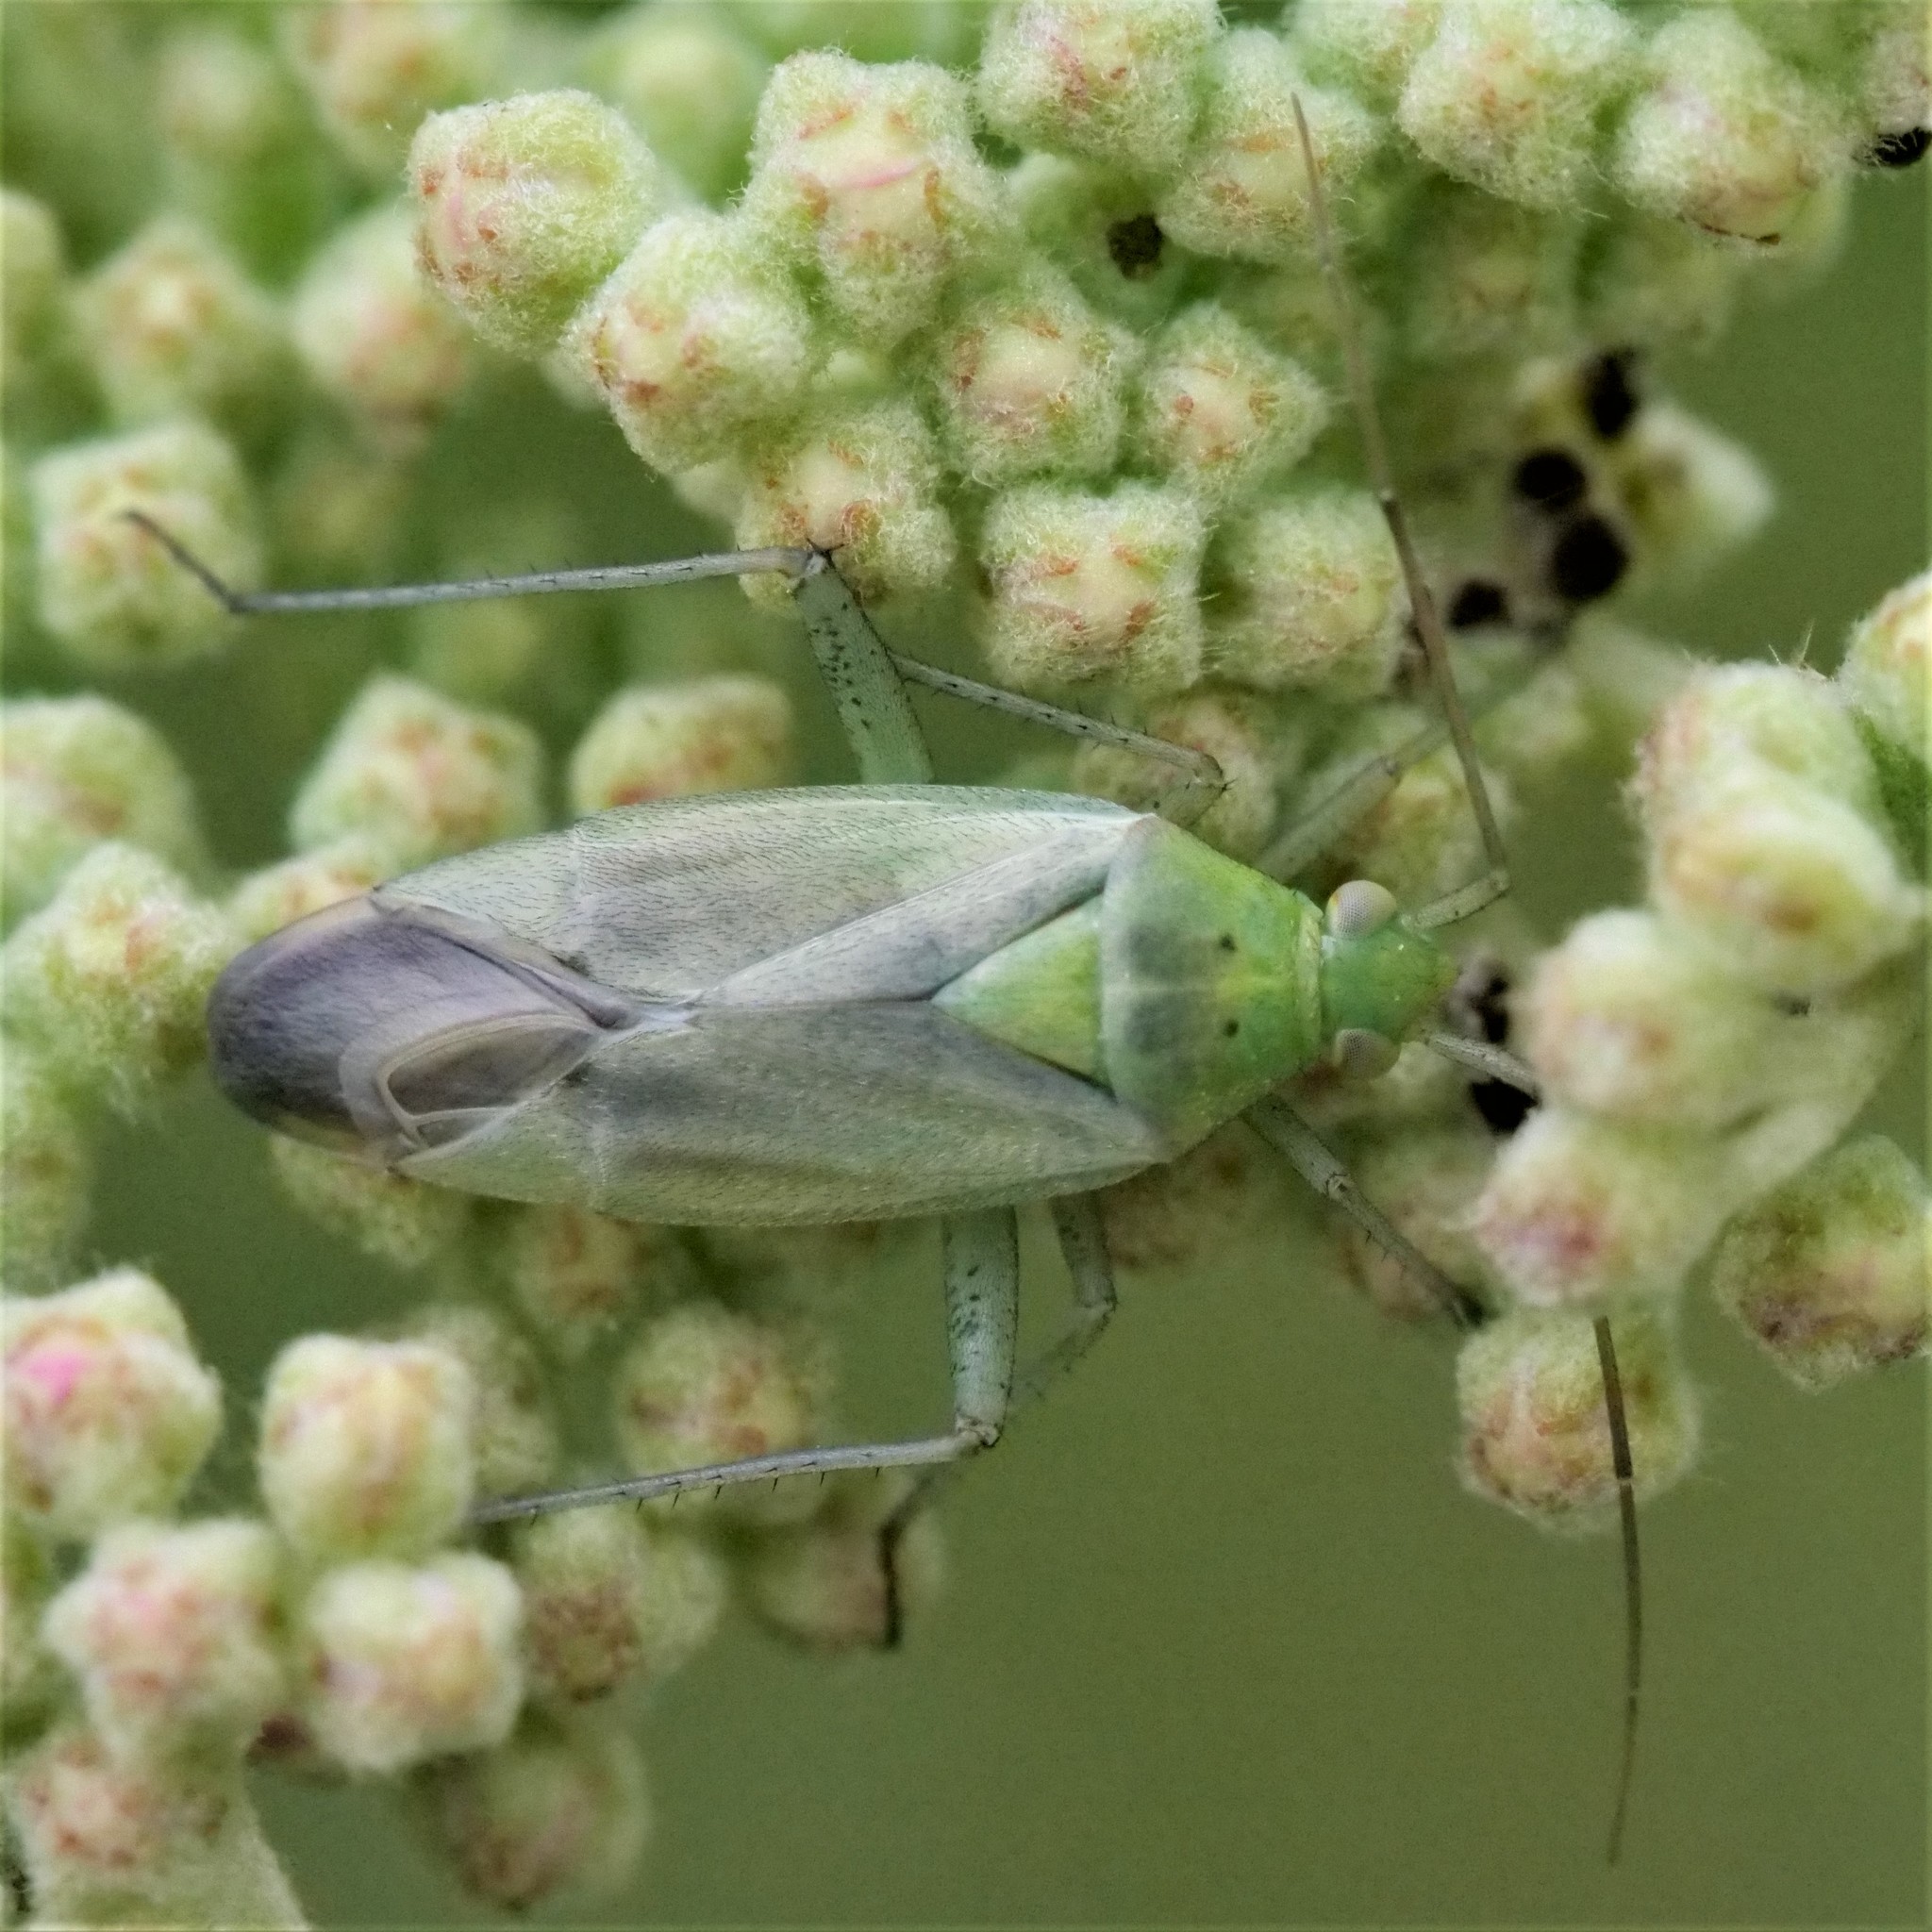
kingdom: Animalia
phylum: Arthropoda
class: Insecta
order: Hemiptera
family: Miridae
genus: Closterotomus
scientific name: Closterotomus norvegicus
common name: Plant bug
